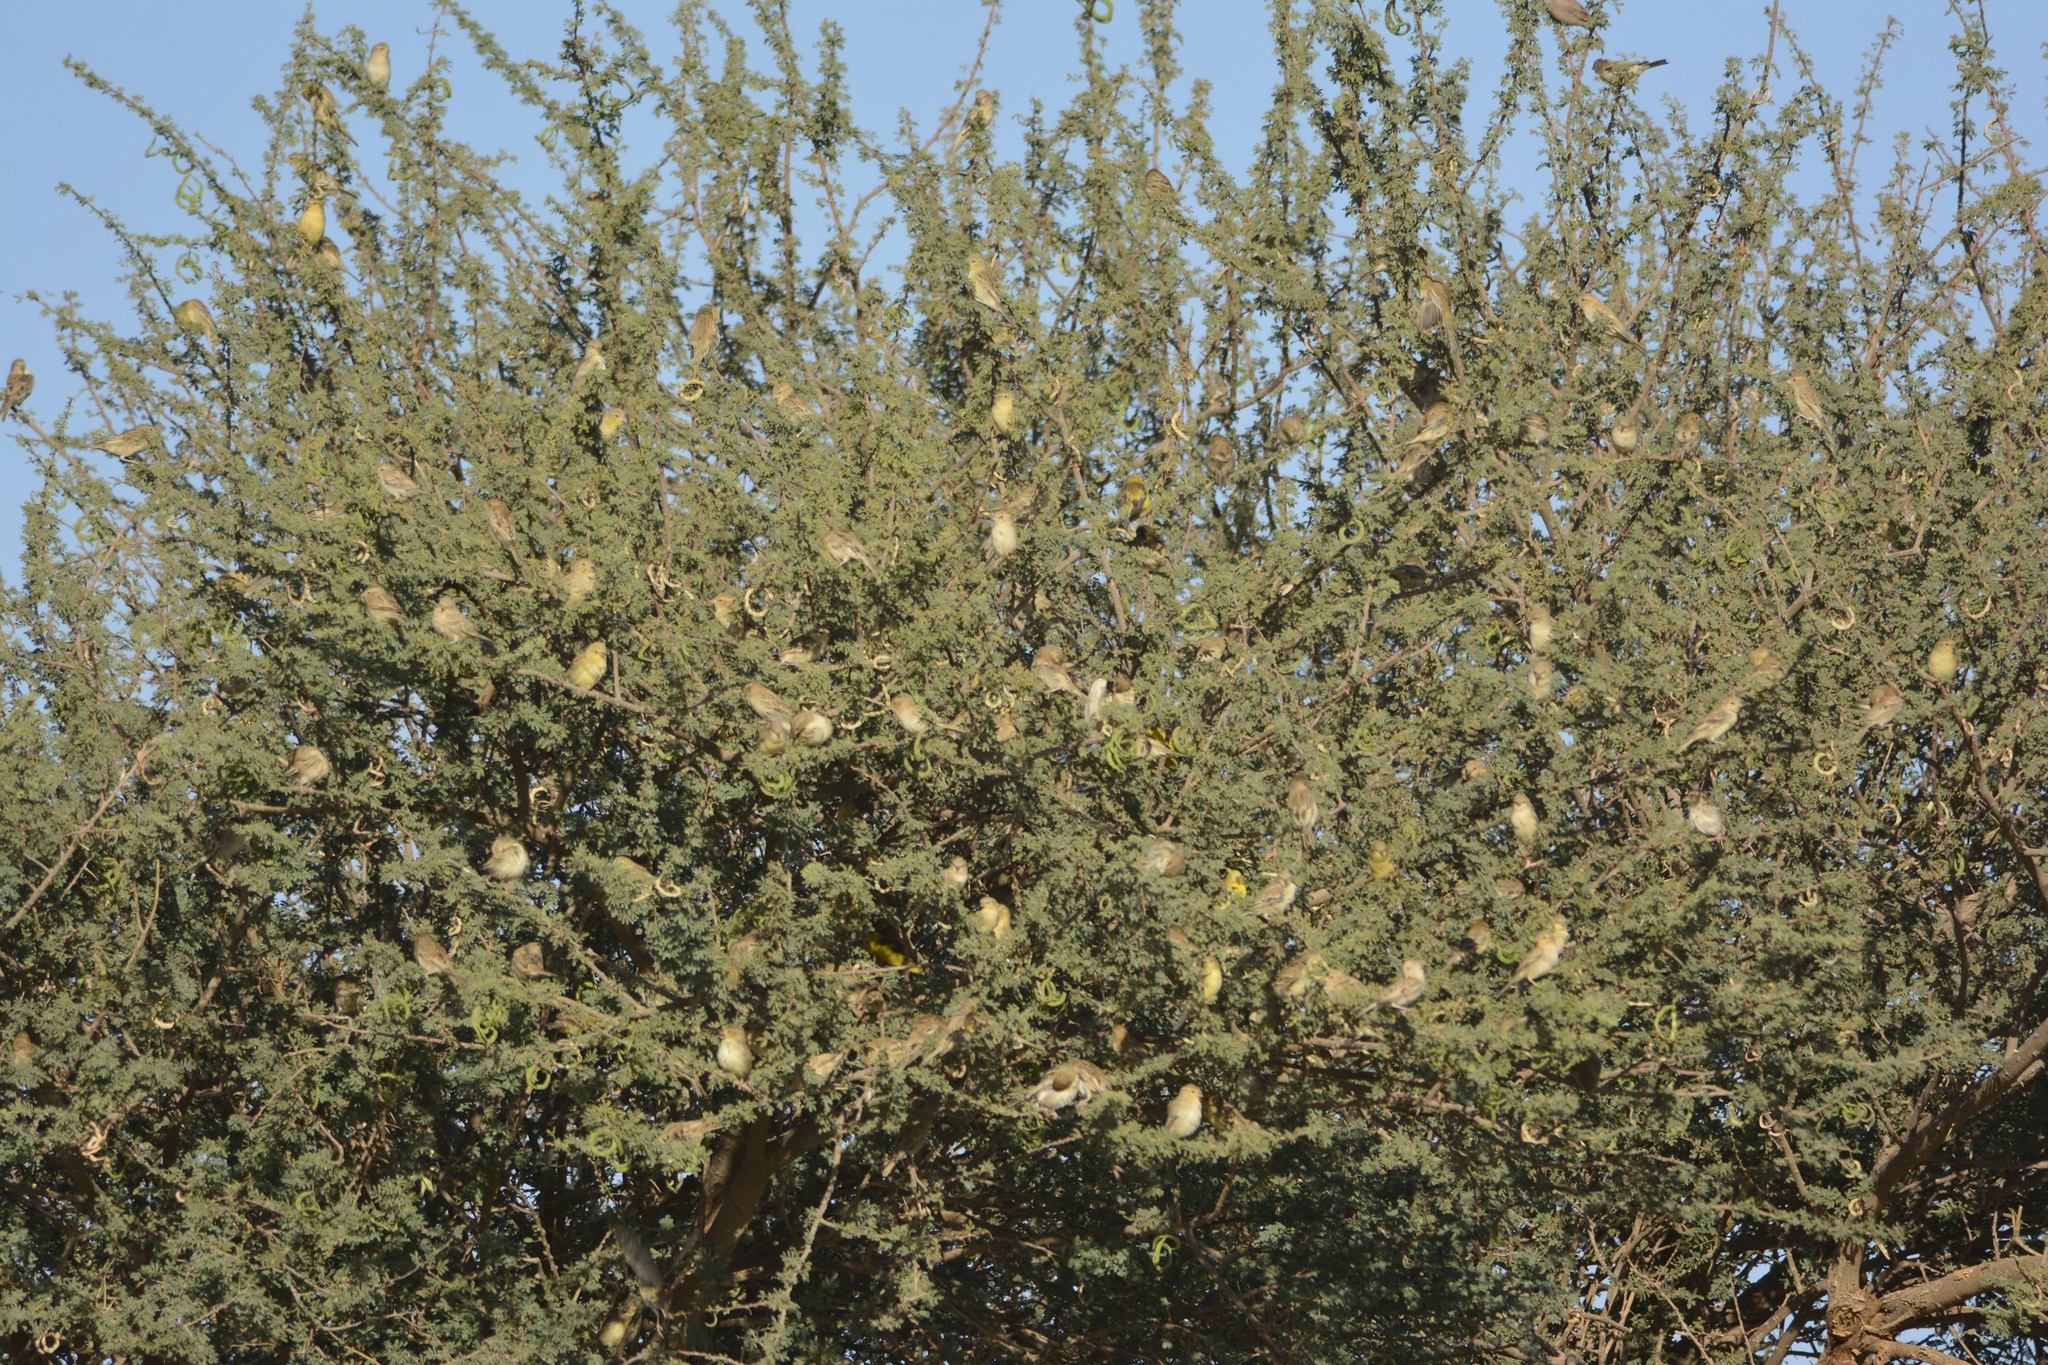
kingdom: Animalia
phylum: Chordata
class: Aves
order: Passeriformes
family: Passeridae
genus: Passer
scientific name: Passer luteus
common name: Sudan golden sparrow
